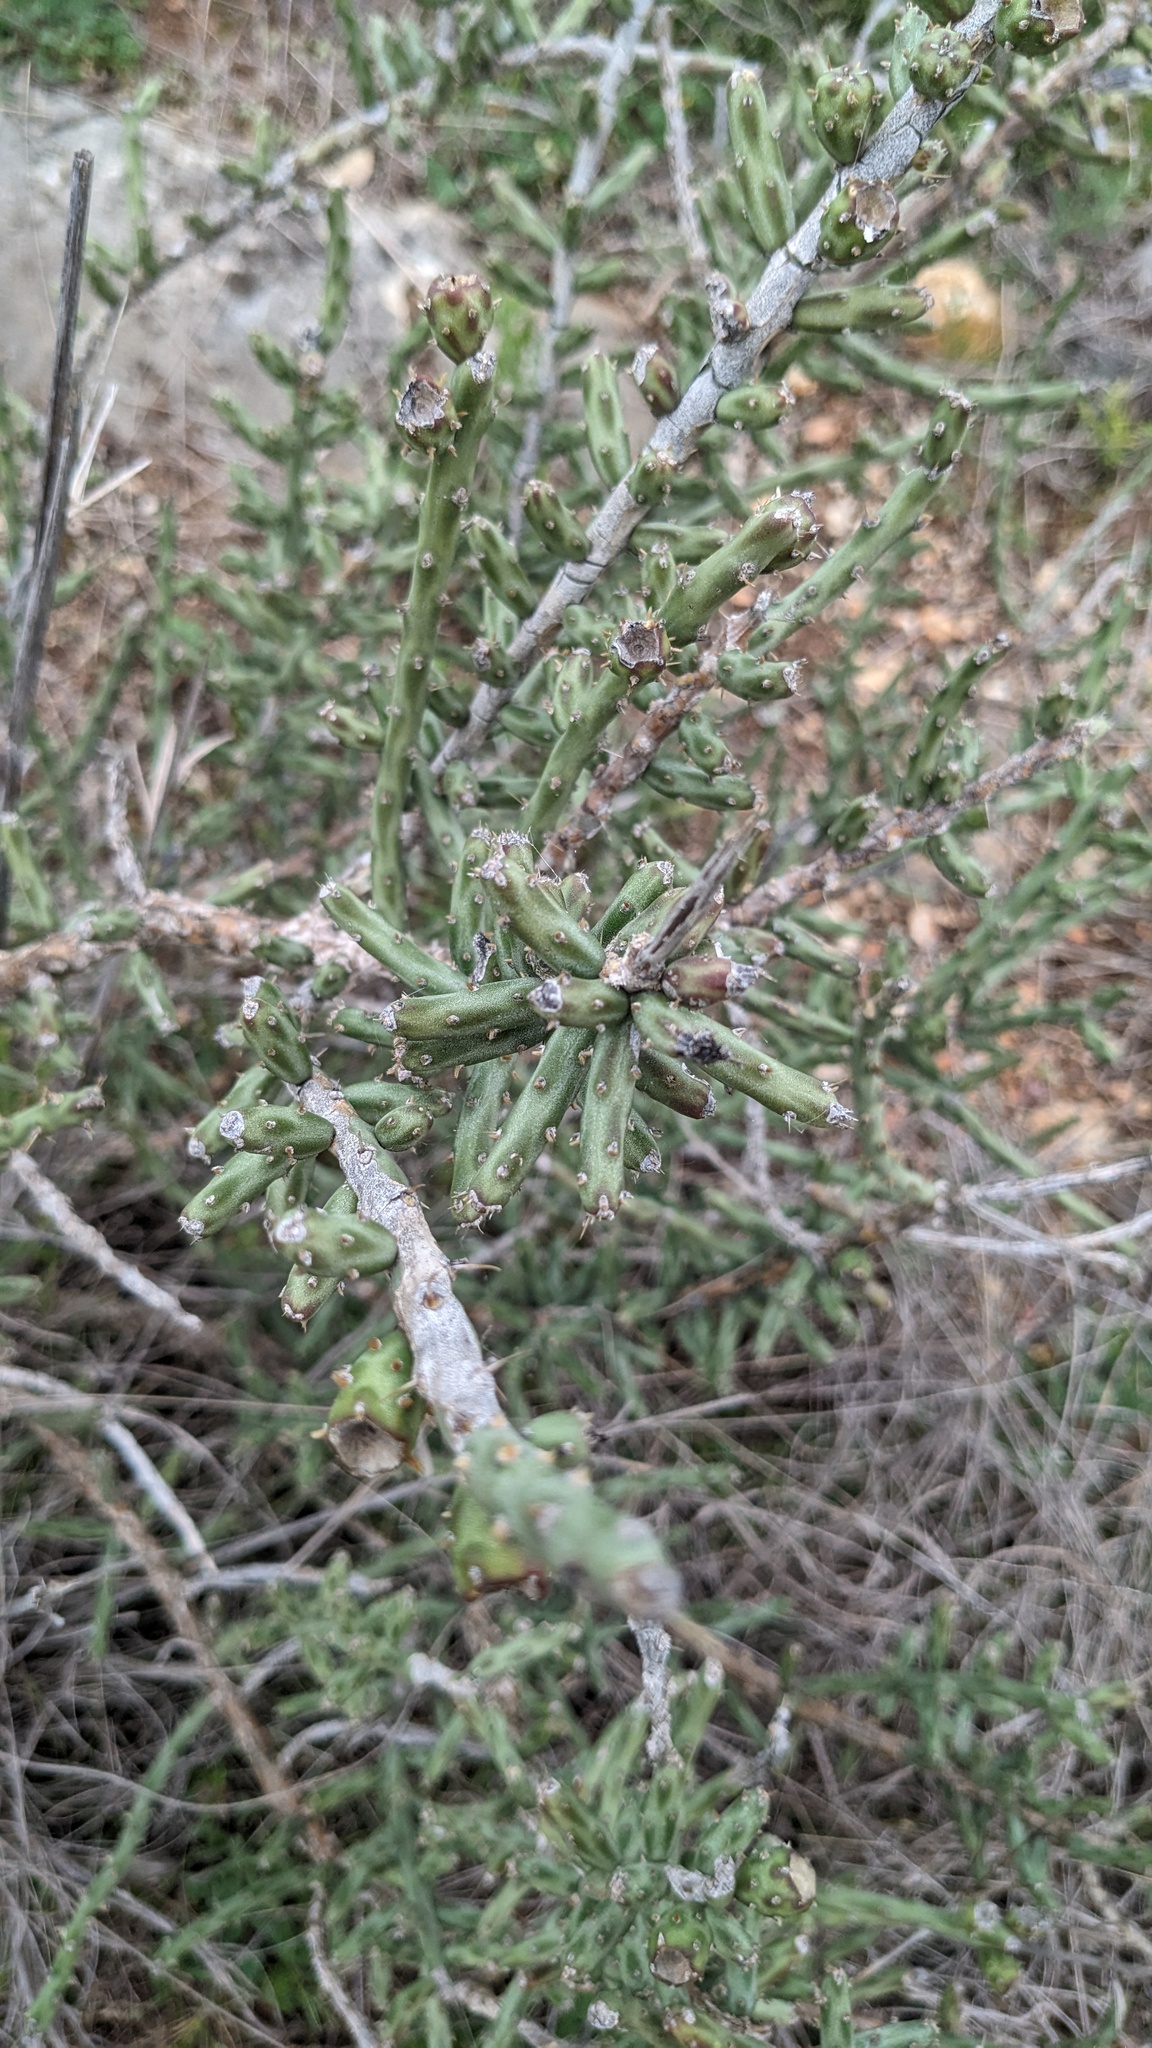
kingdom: Plantae
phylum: Tracheophyta
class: Magnoliopsida
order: Caryophyllales
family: Cactaceae
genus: Cylindropuntia
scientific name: Cylindropuntia leptocaulis
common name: Christmas cactus
